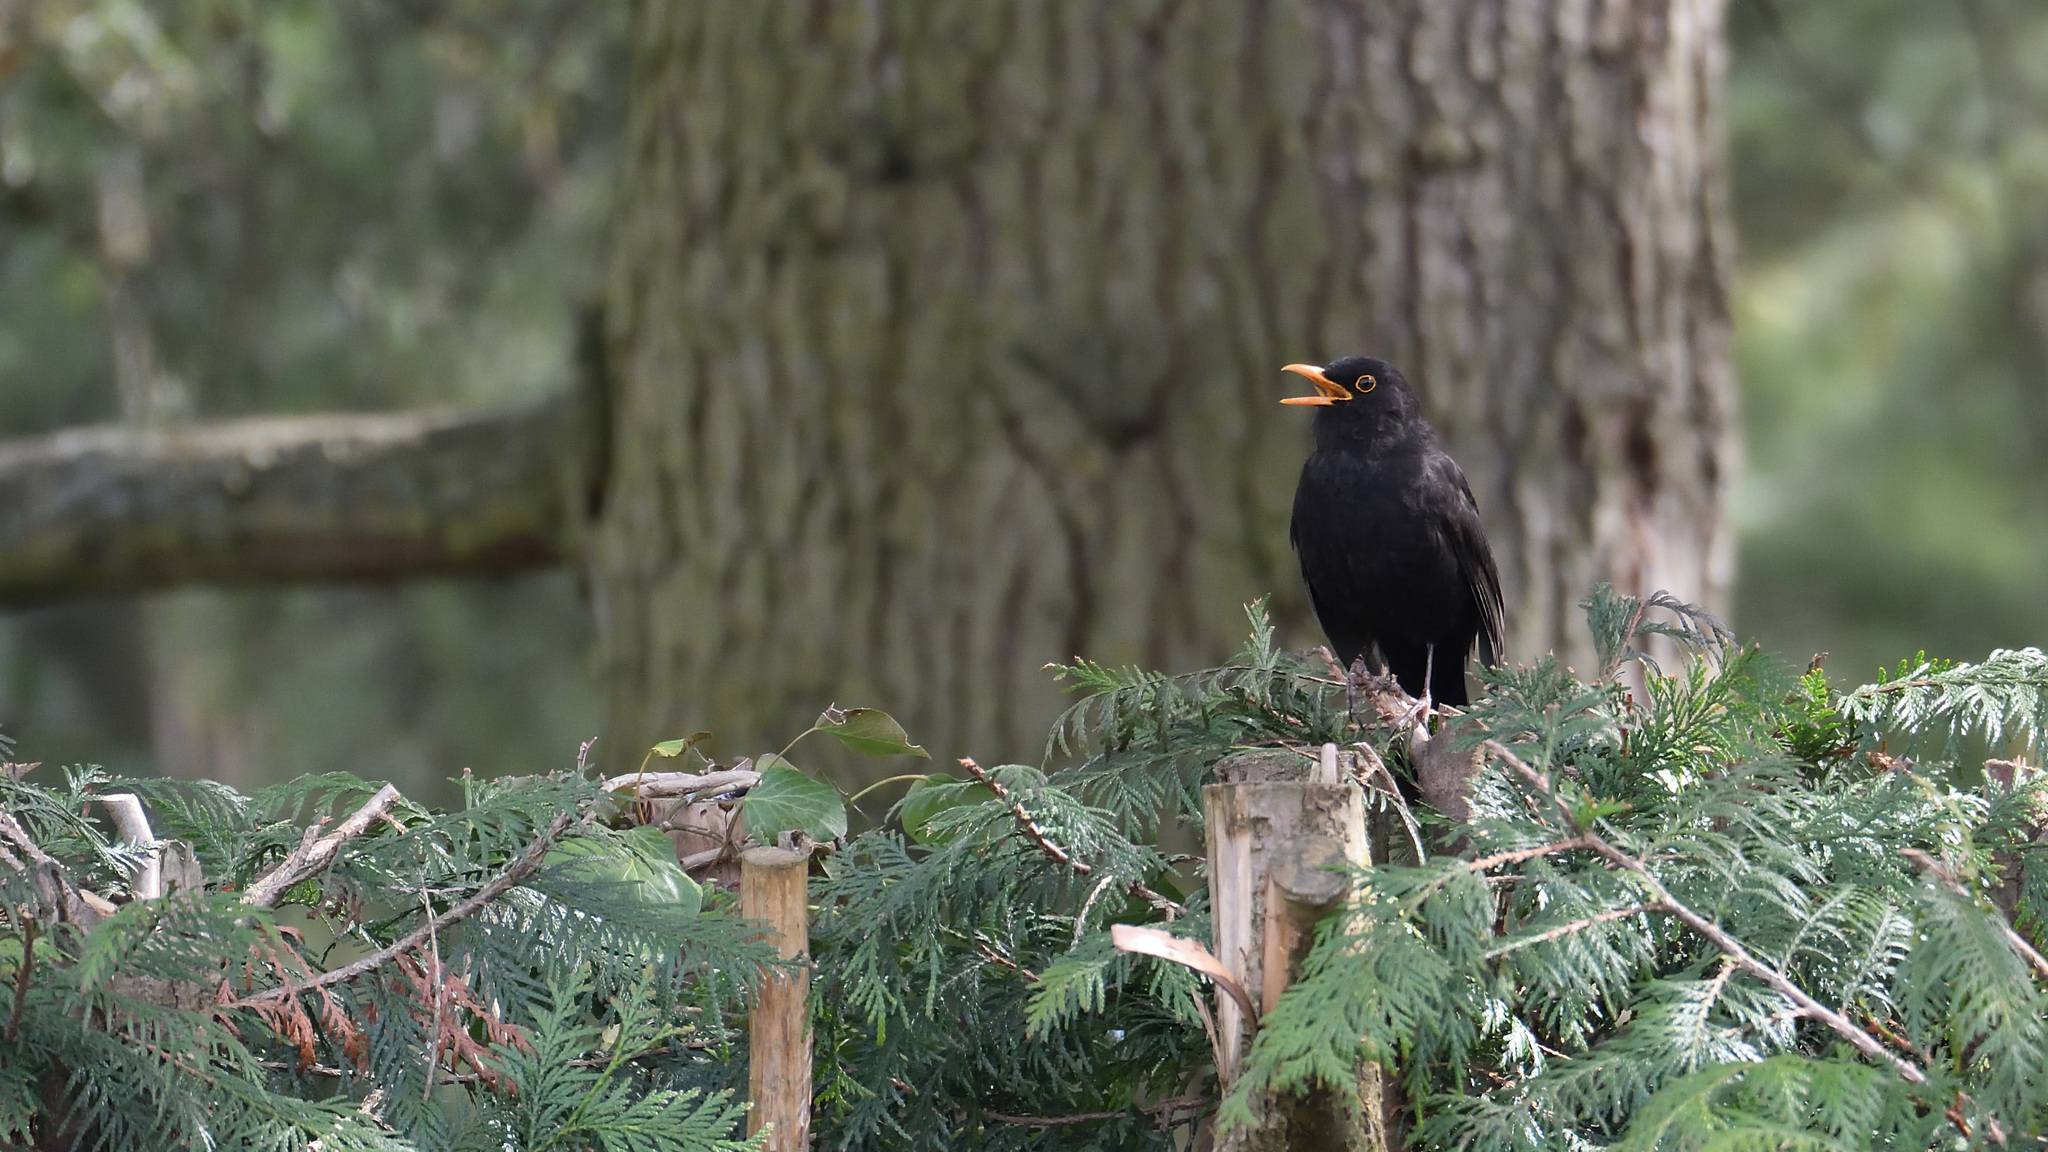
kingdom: Animalia
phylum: Chordata
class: Aves
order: Passeriformes
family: Turdidae
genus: Turdus
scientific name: Turdus merula
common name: Common blackbird
